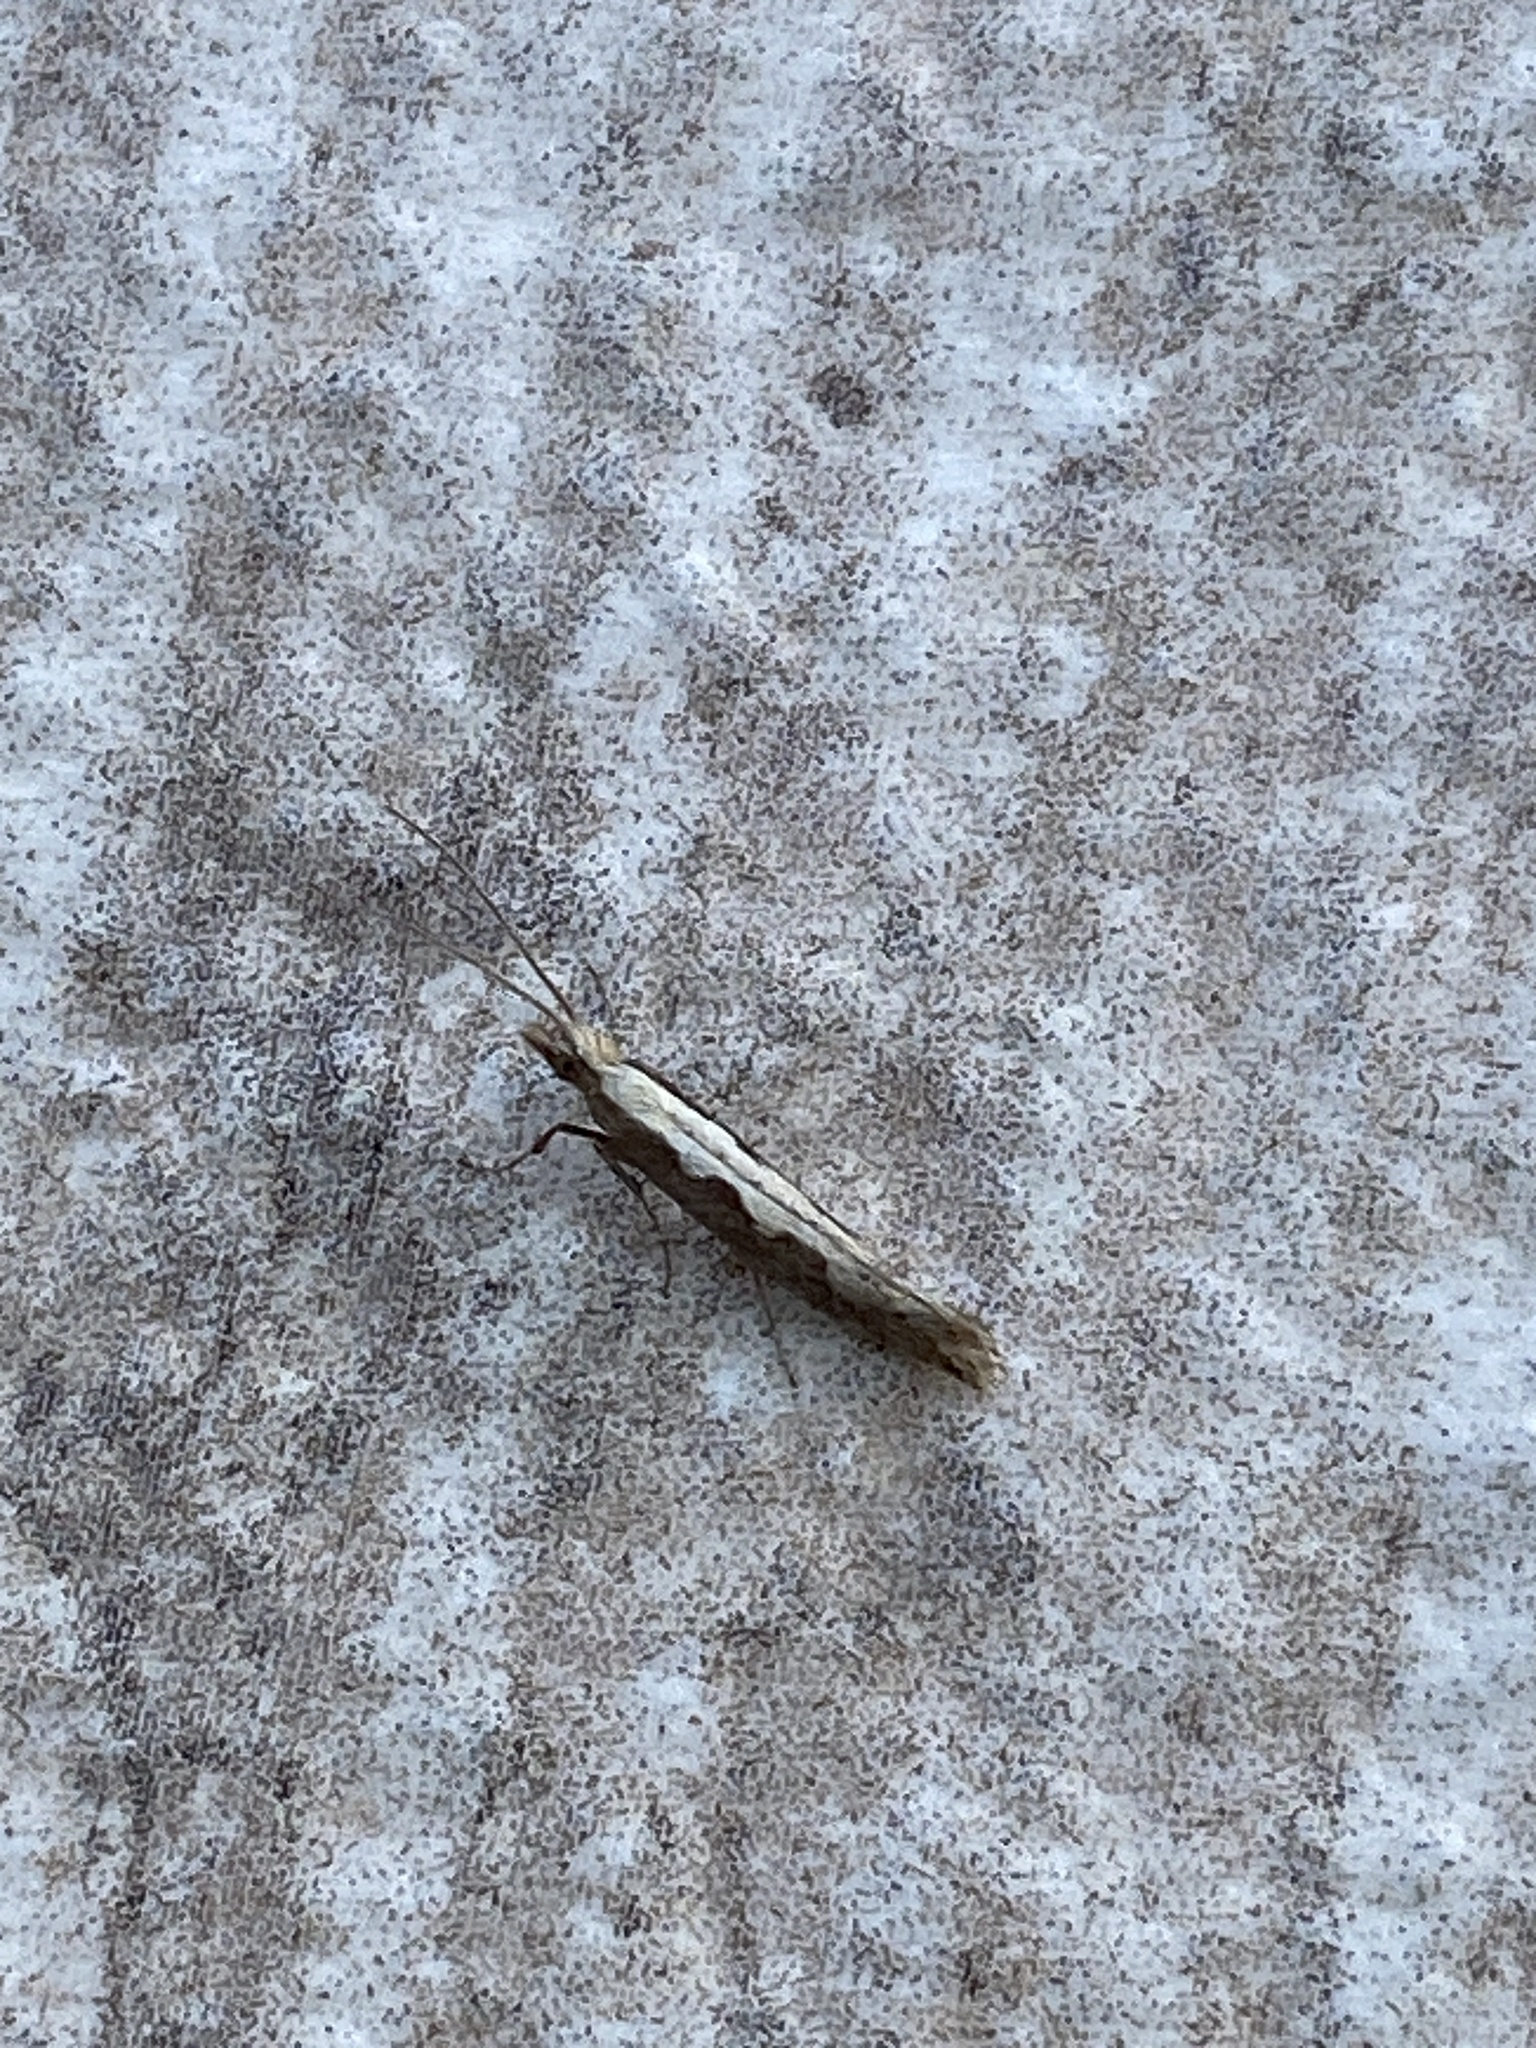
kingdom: Animalia
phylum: Arthropoda
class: Insecta
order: Lepidoptera
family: Plutellidae
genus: Plutella
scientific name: Plutella xylostella
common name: Diamond-back moth
